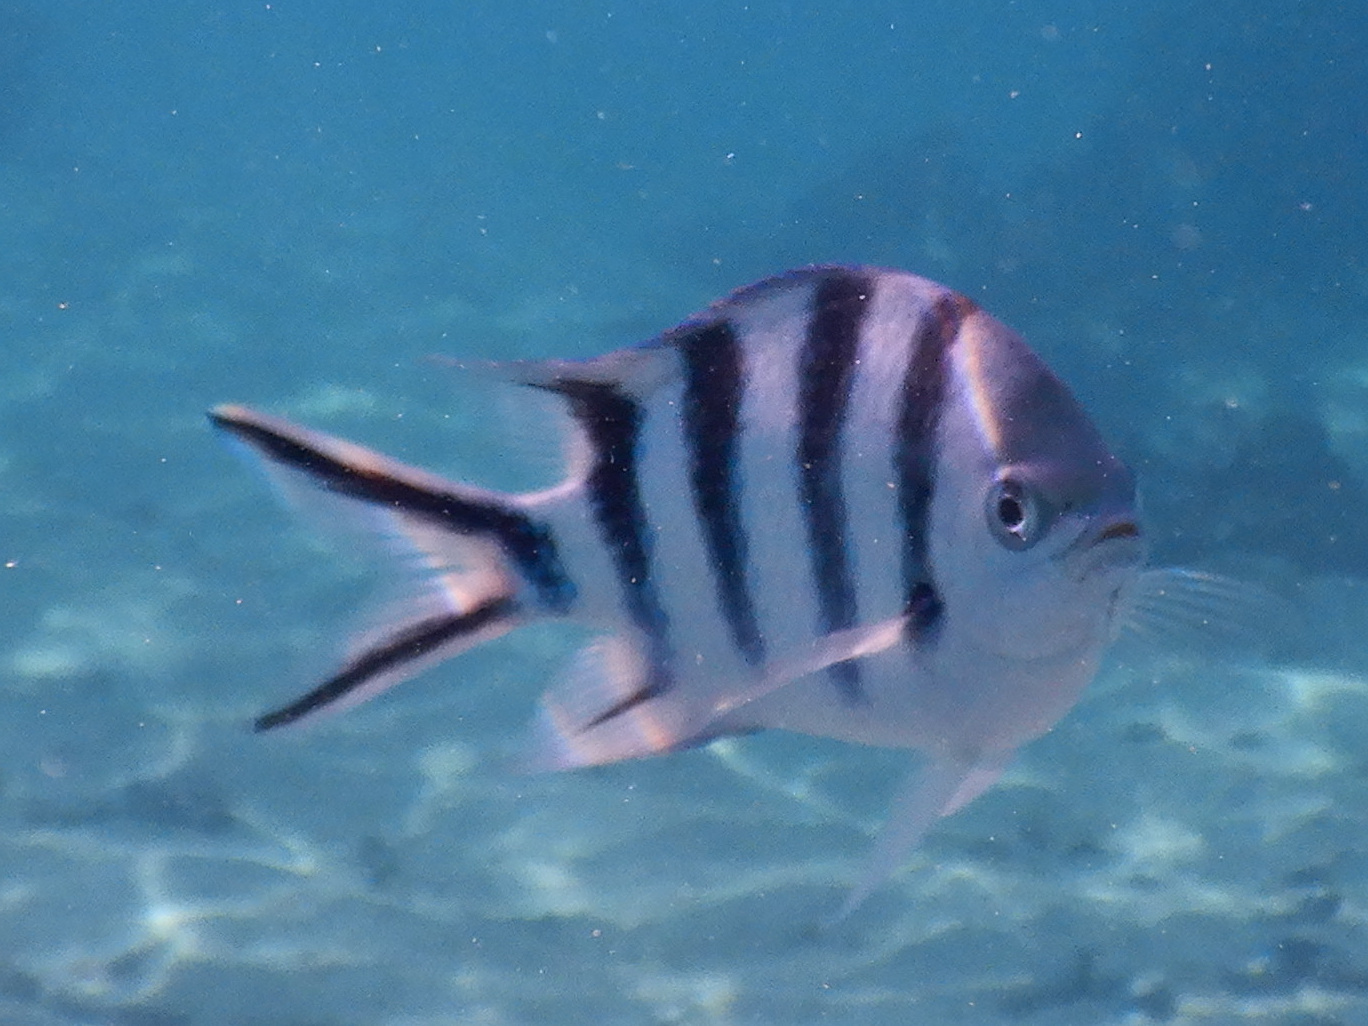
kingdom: Animalia
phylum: Chordata
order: Perciformes
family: Pomacentridae
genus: Abudefduf
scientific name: Abudefduf sexfasciatus
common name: Scissortail sergeant
